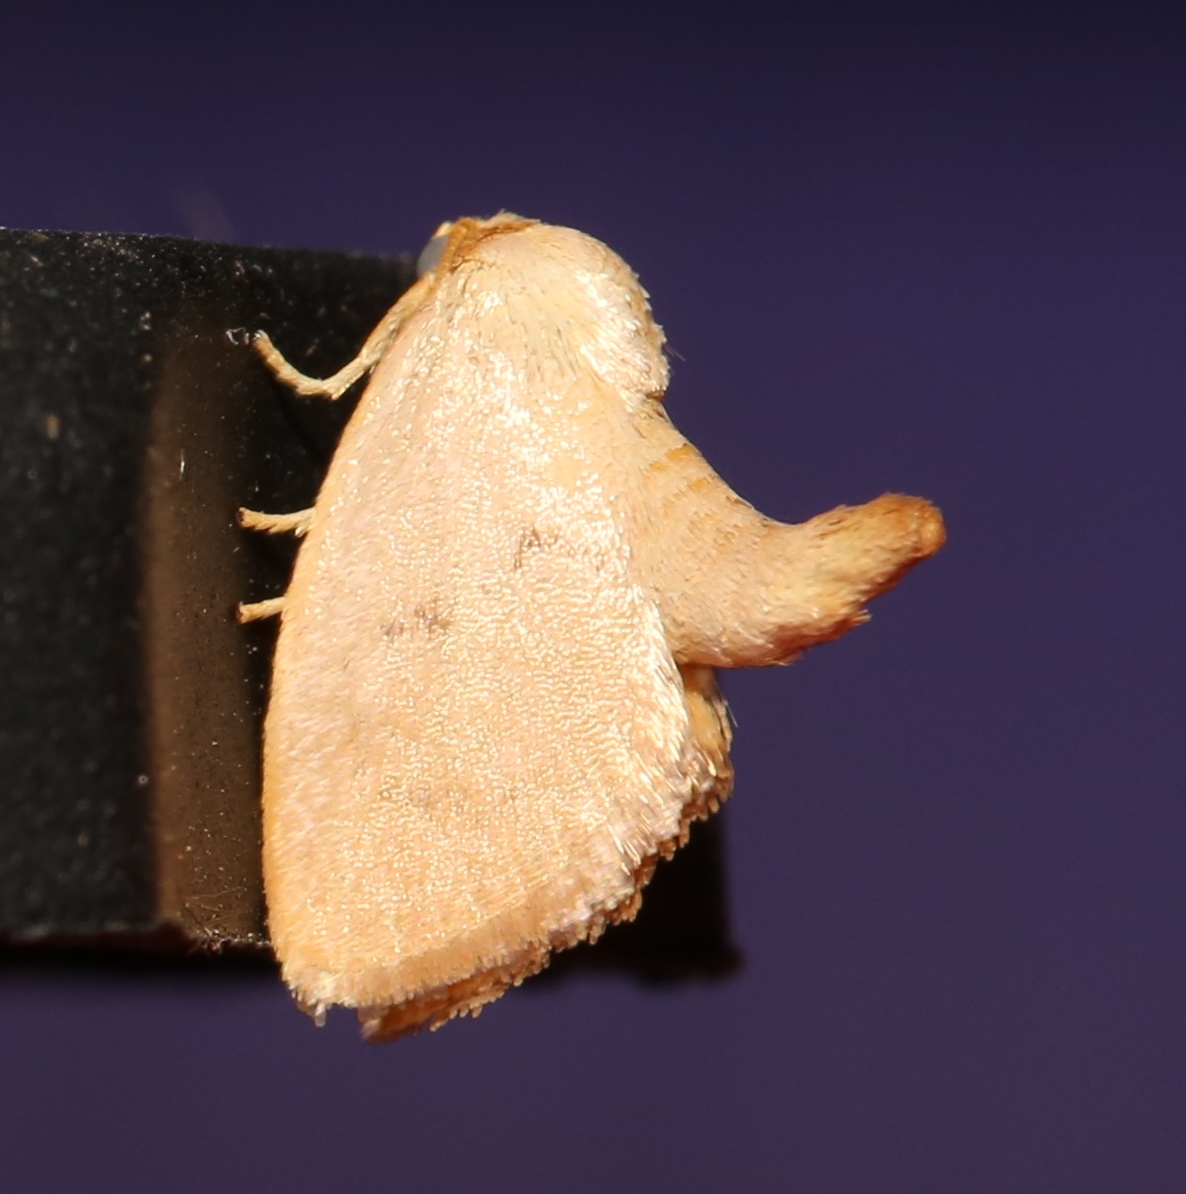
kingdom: Animalia
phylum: Arthropoda
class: Insecta
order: Lepidoptera
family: Limacodidae
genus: Tortricidia
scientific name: Tortricidia pallida
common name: Red-crossed button slug moth
